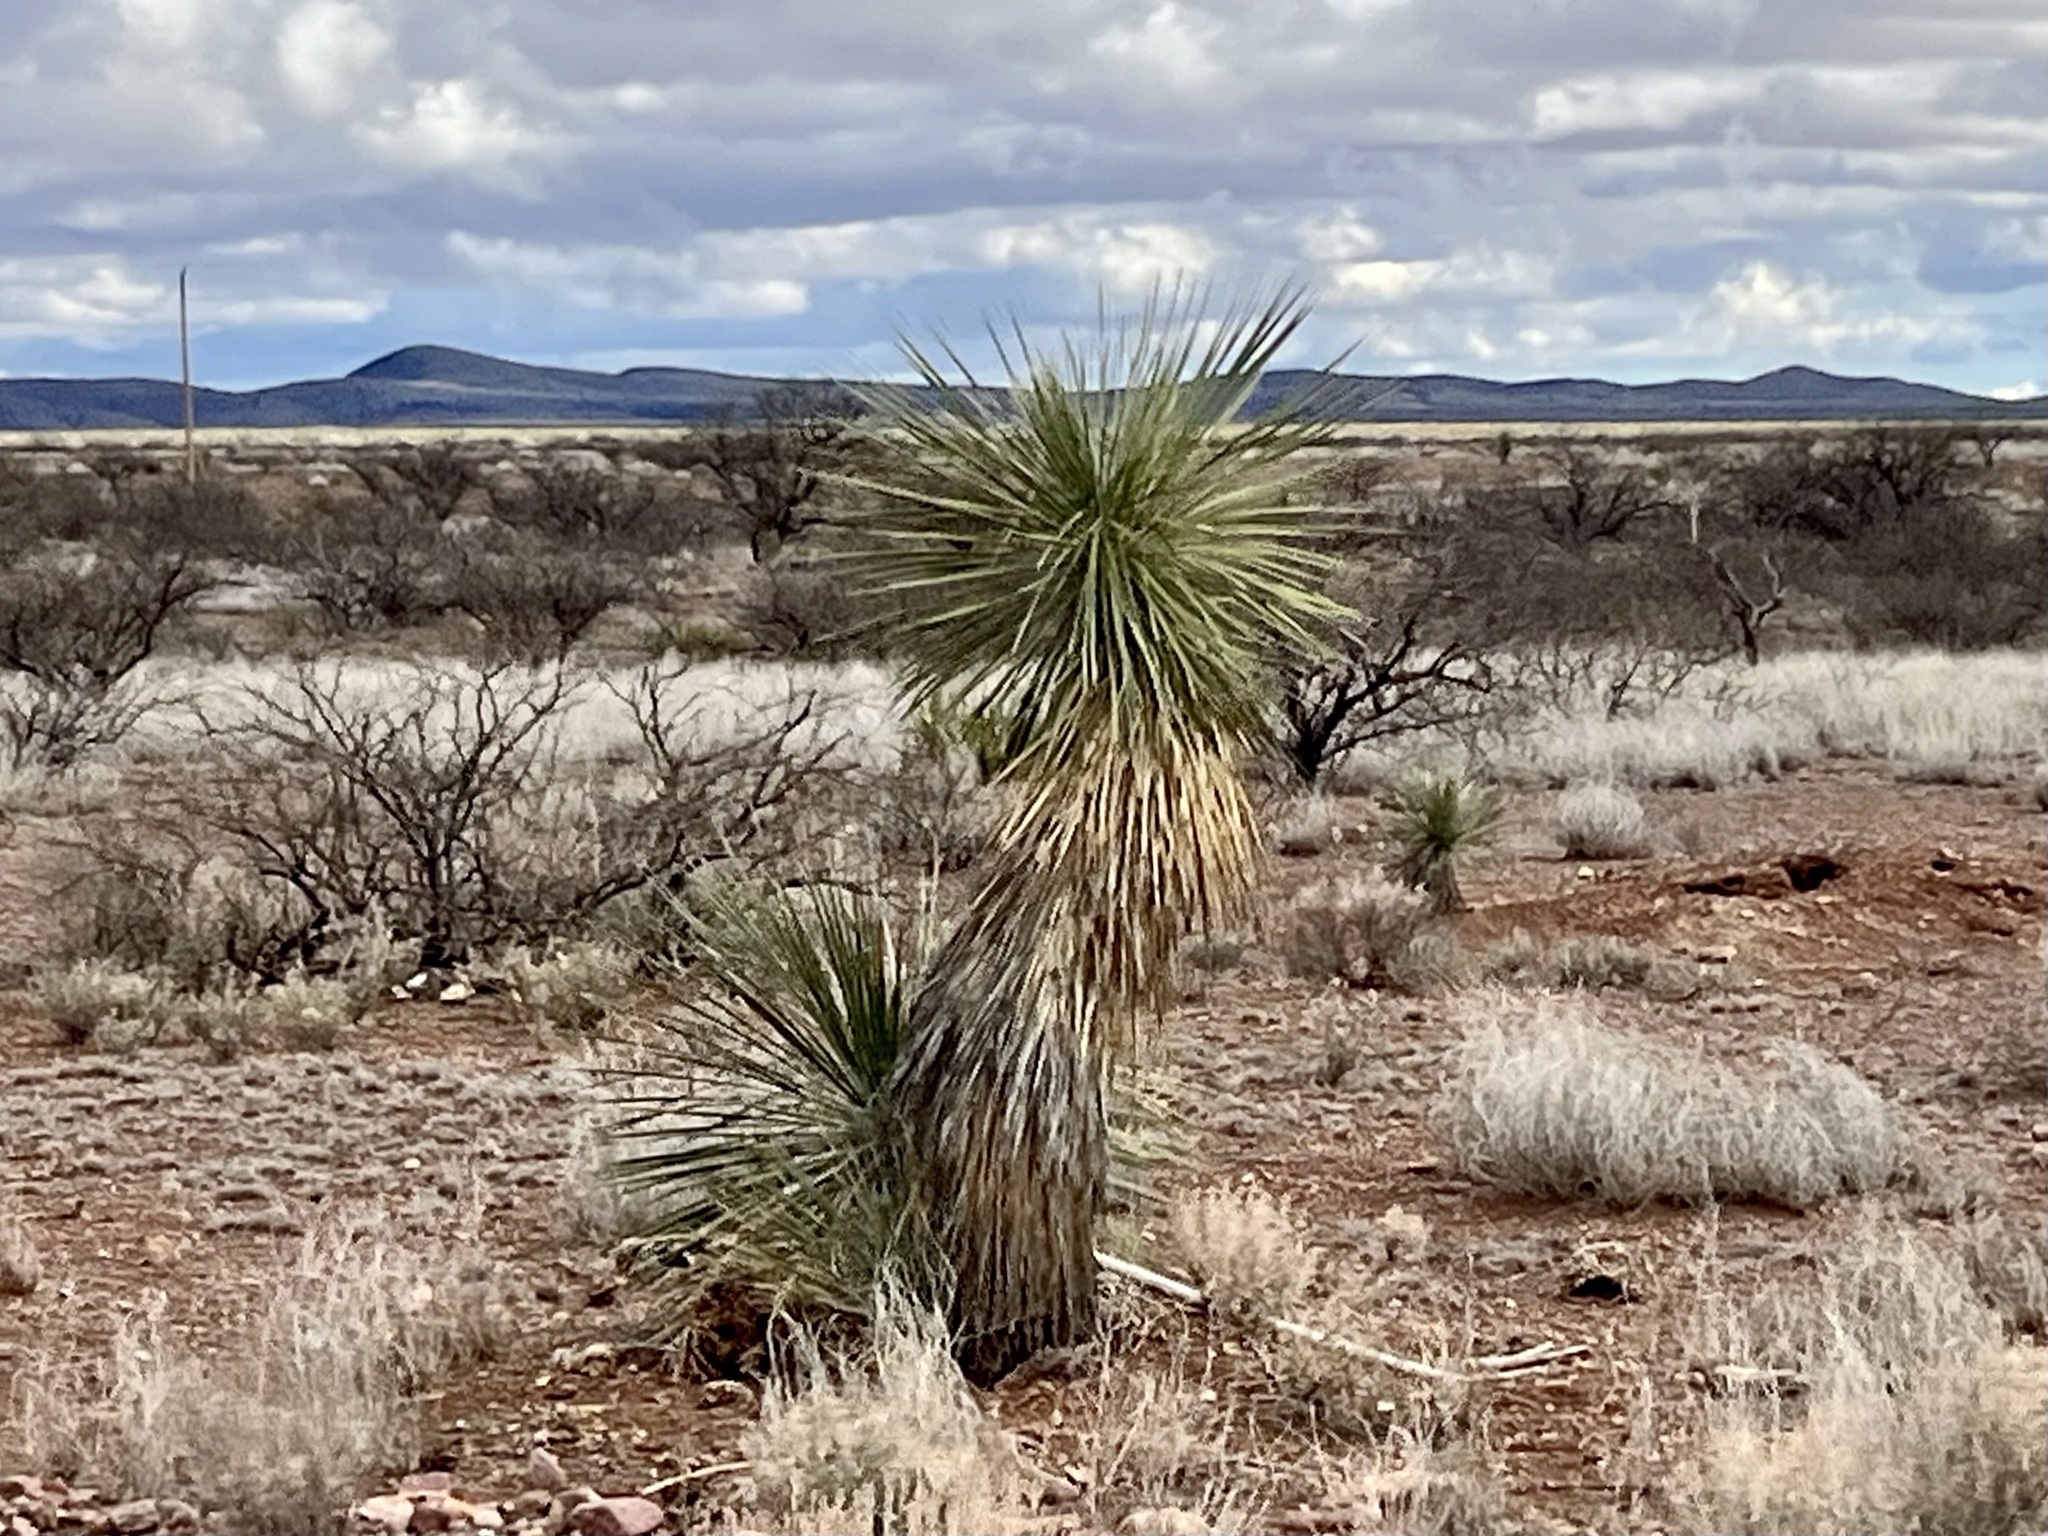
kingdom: Plantae
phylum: Tracheophyta
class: Liliopsida
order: Asparagales
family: Asparagaceae
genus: Yucca
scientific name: Yucca elata
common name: Palmella
